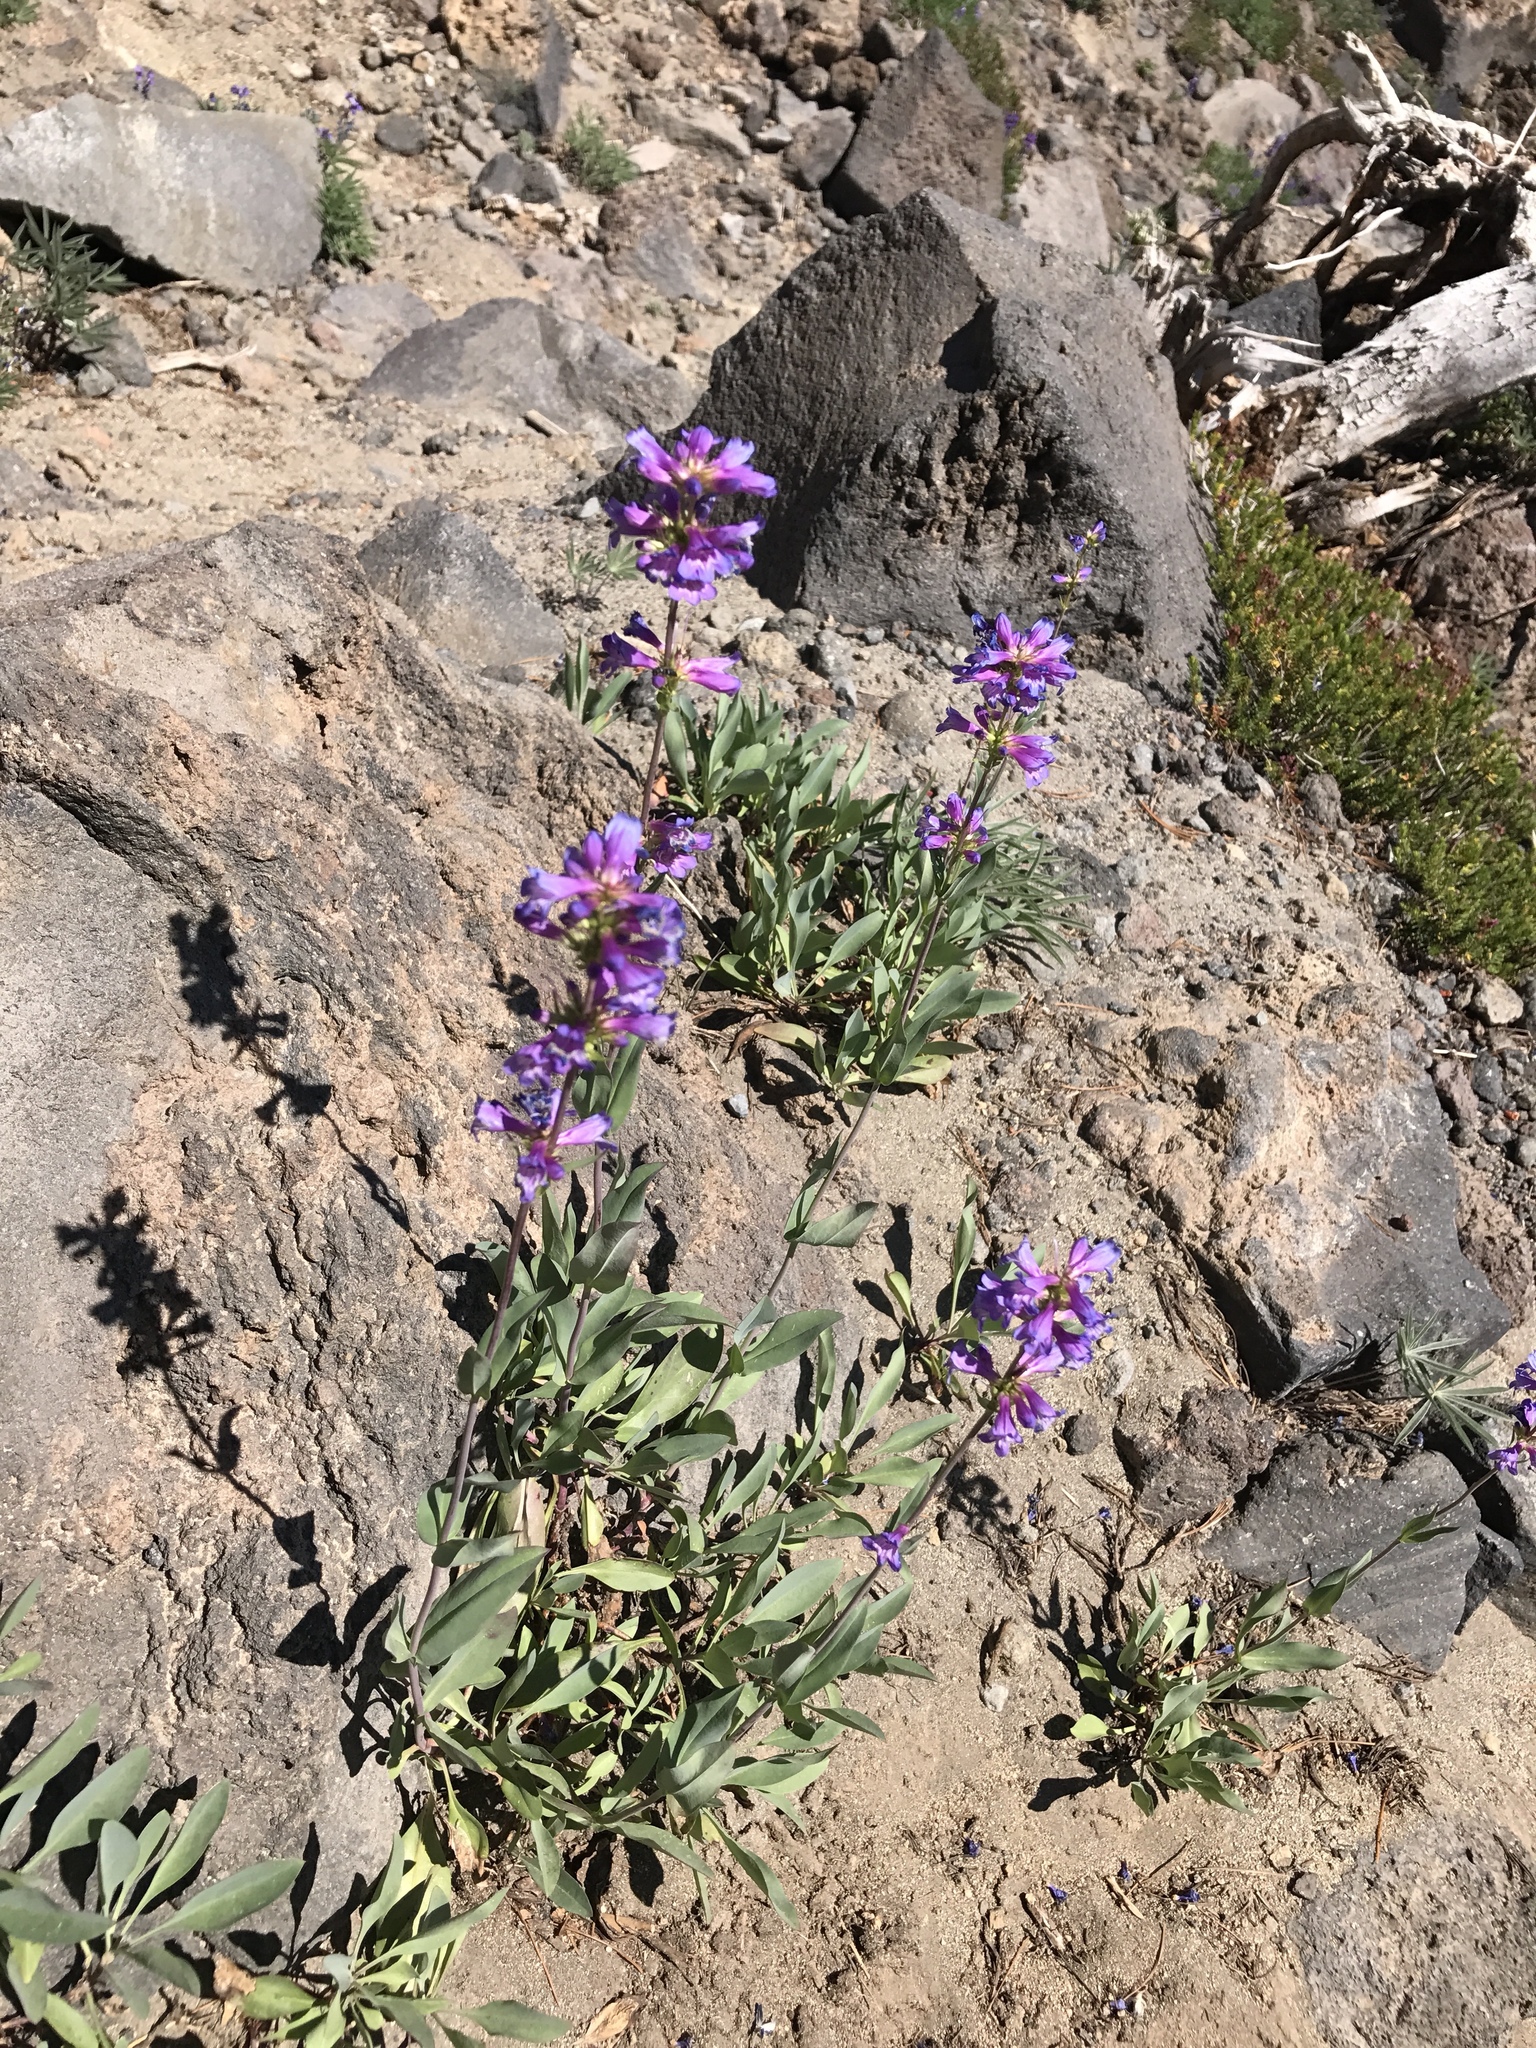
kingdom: Plantae
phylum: Tracheophyta
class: Magnoliopsida
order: Lamiales
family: Plantaginaceae
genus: Penstemon
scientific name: Penstemon euglaucus
